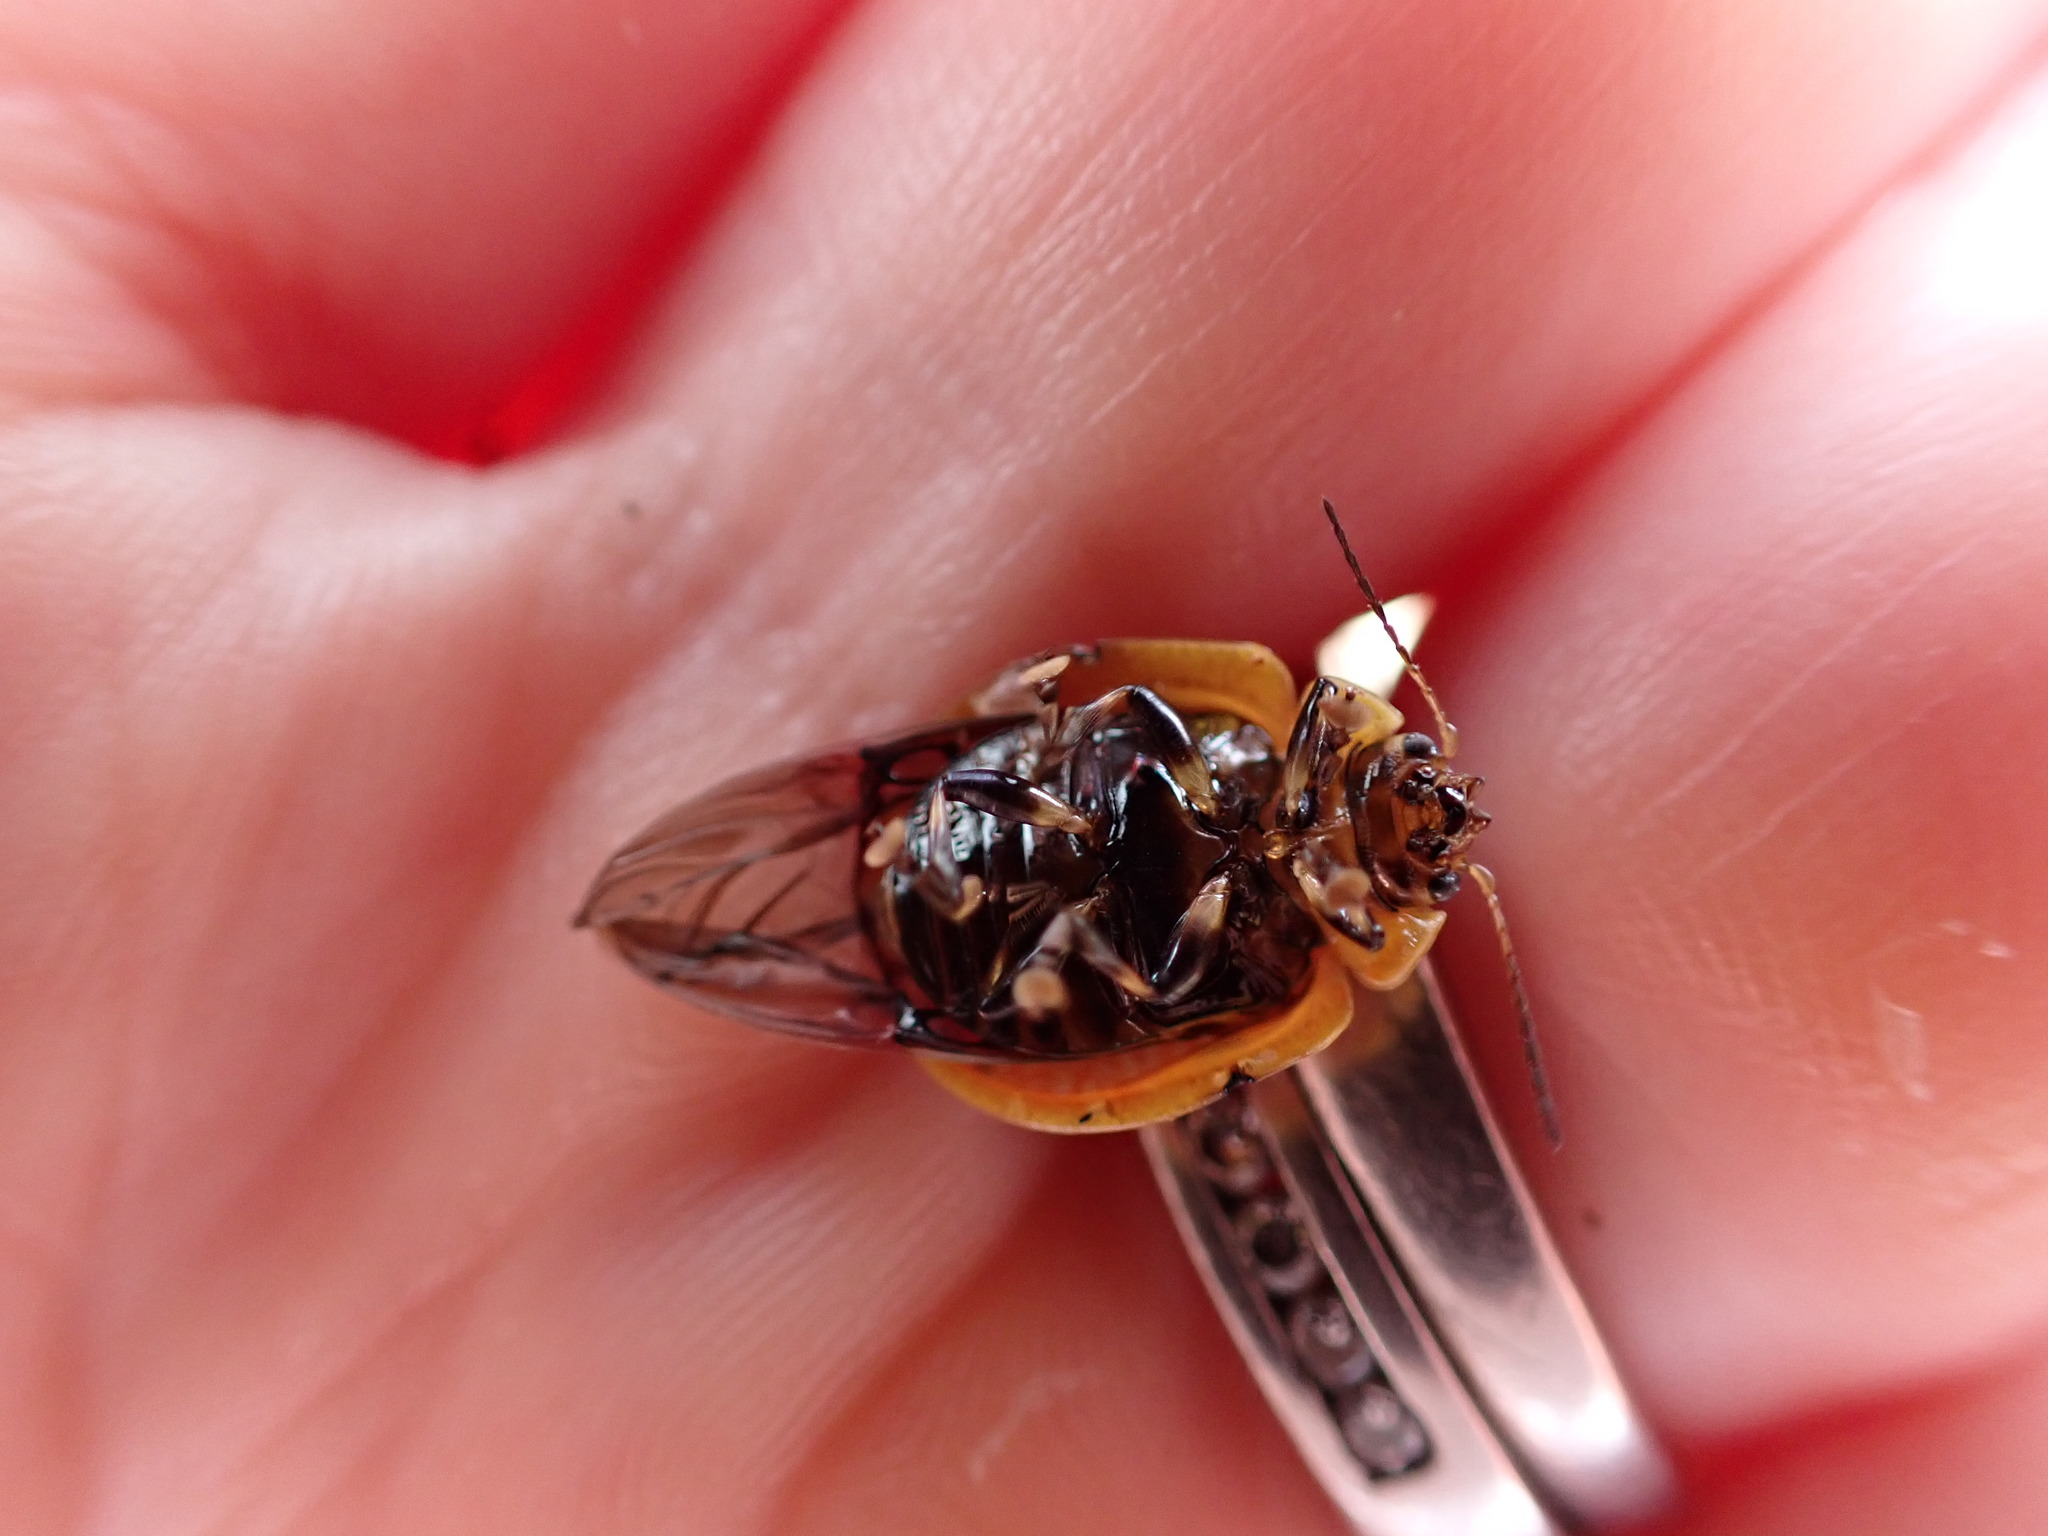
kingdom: Animalia
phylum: Arthropoda
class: Insecta
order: Coleoptera
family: Chrysomelidae
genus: Paropsisterna
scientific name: Paropsisterna cloelia
